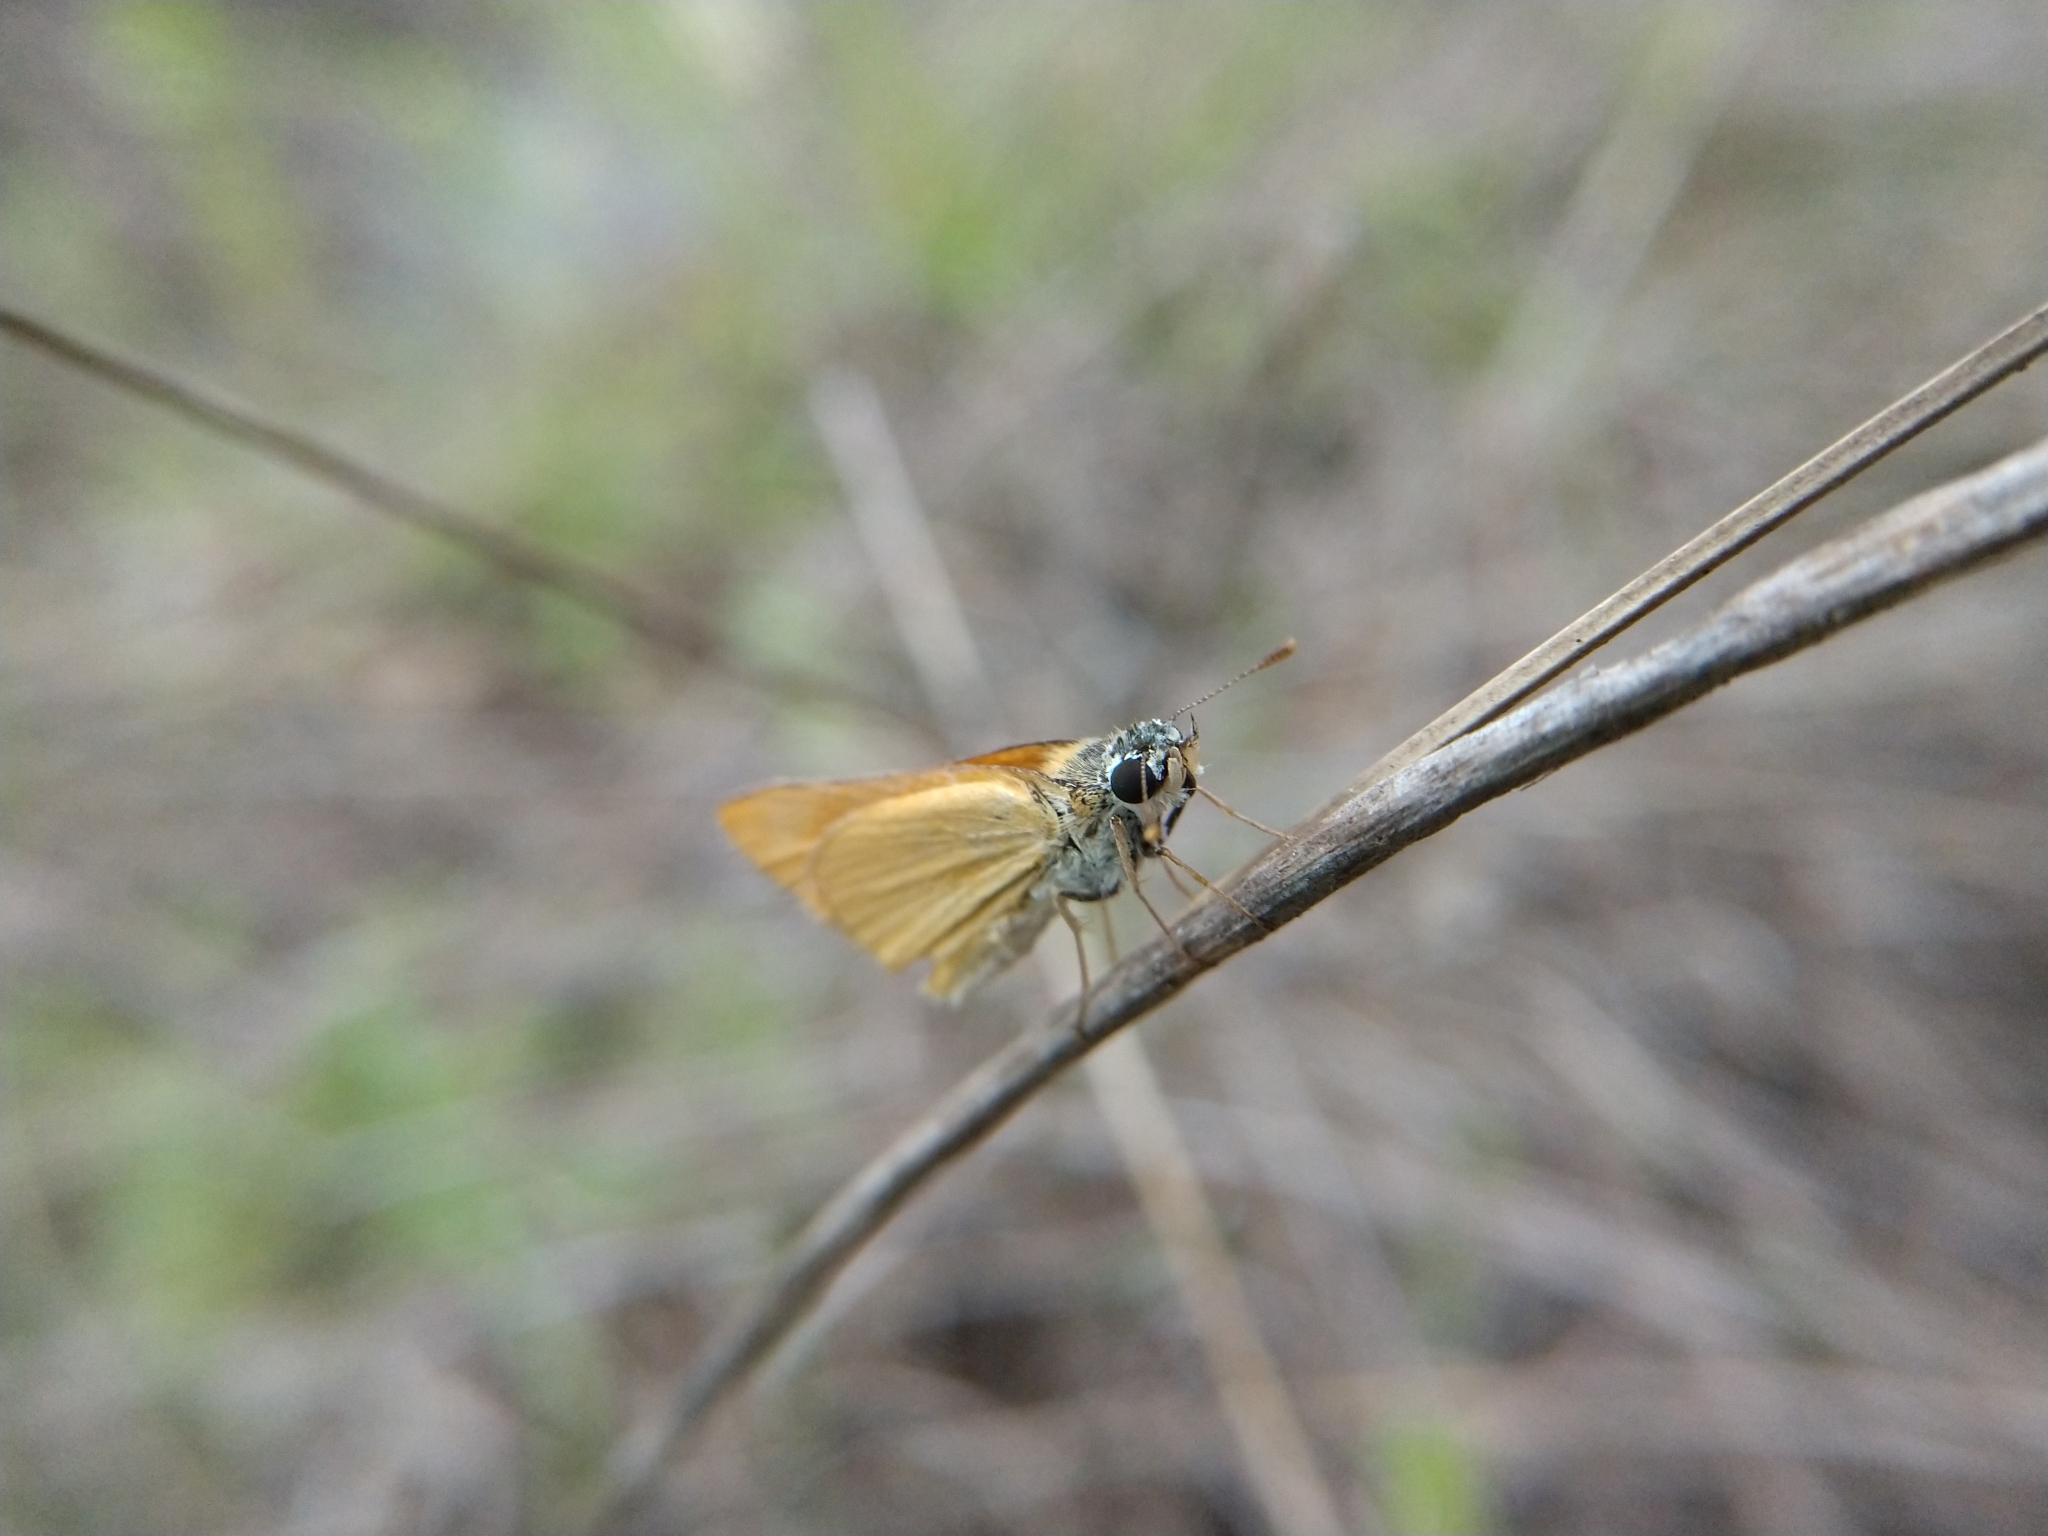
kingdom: Animalia
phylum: Arthropoda
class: Insecta
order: Lepidoptera
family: Hesperiidae
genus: Copaeodes
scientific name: Copaeodes aurantiaca
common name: Orange skipperling
